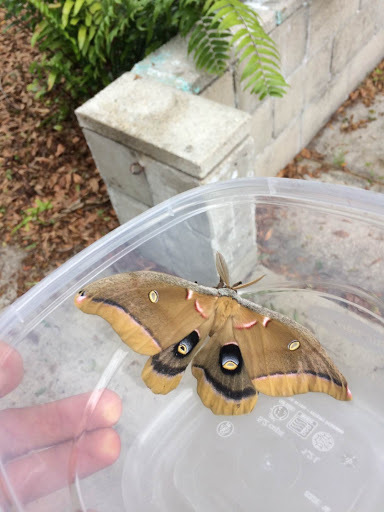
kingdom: Animalia
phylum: Arthropoda
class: Insecta
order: Lepidoptera
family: Saturniidae
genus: Antheraea
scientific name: Antheraea polyphemus
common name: Polyphemus moth
